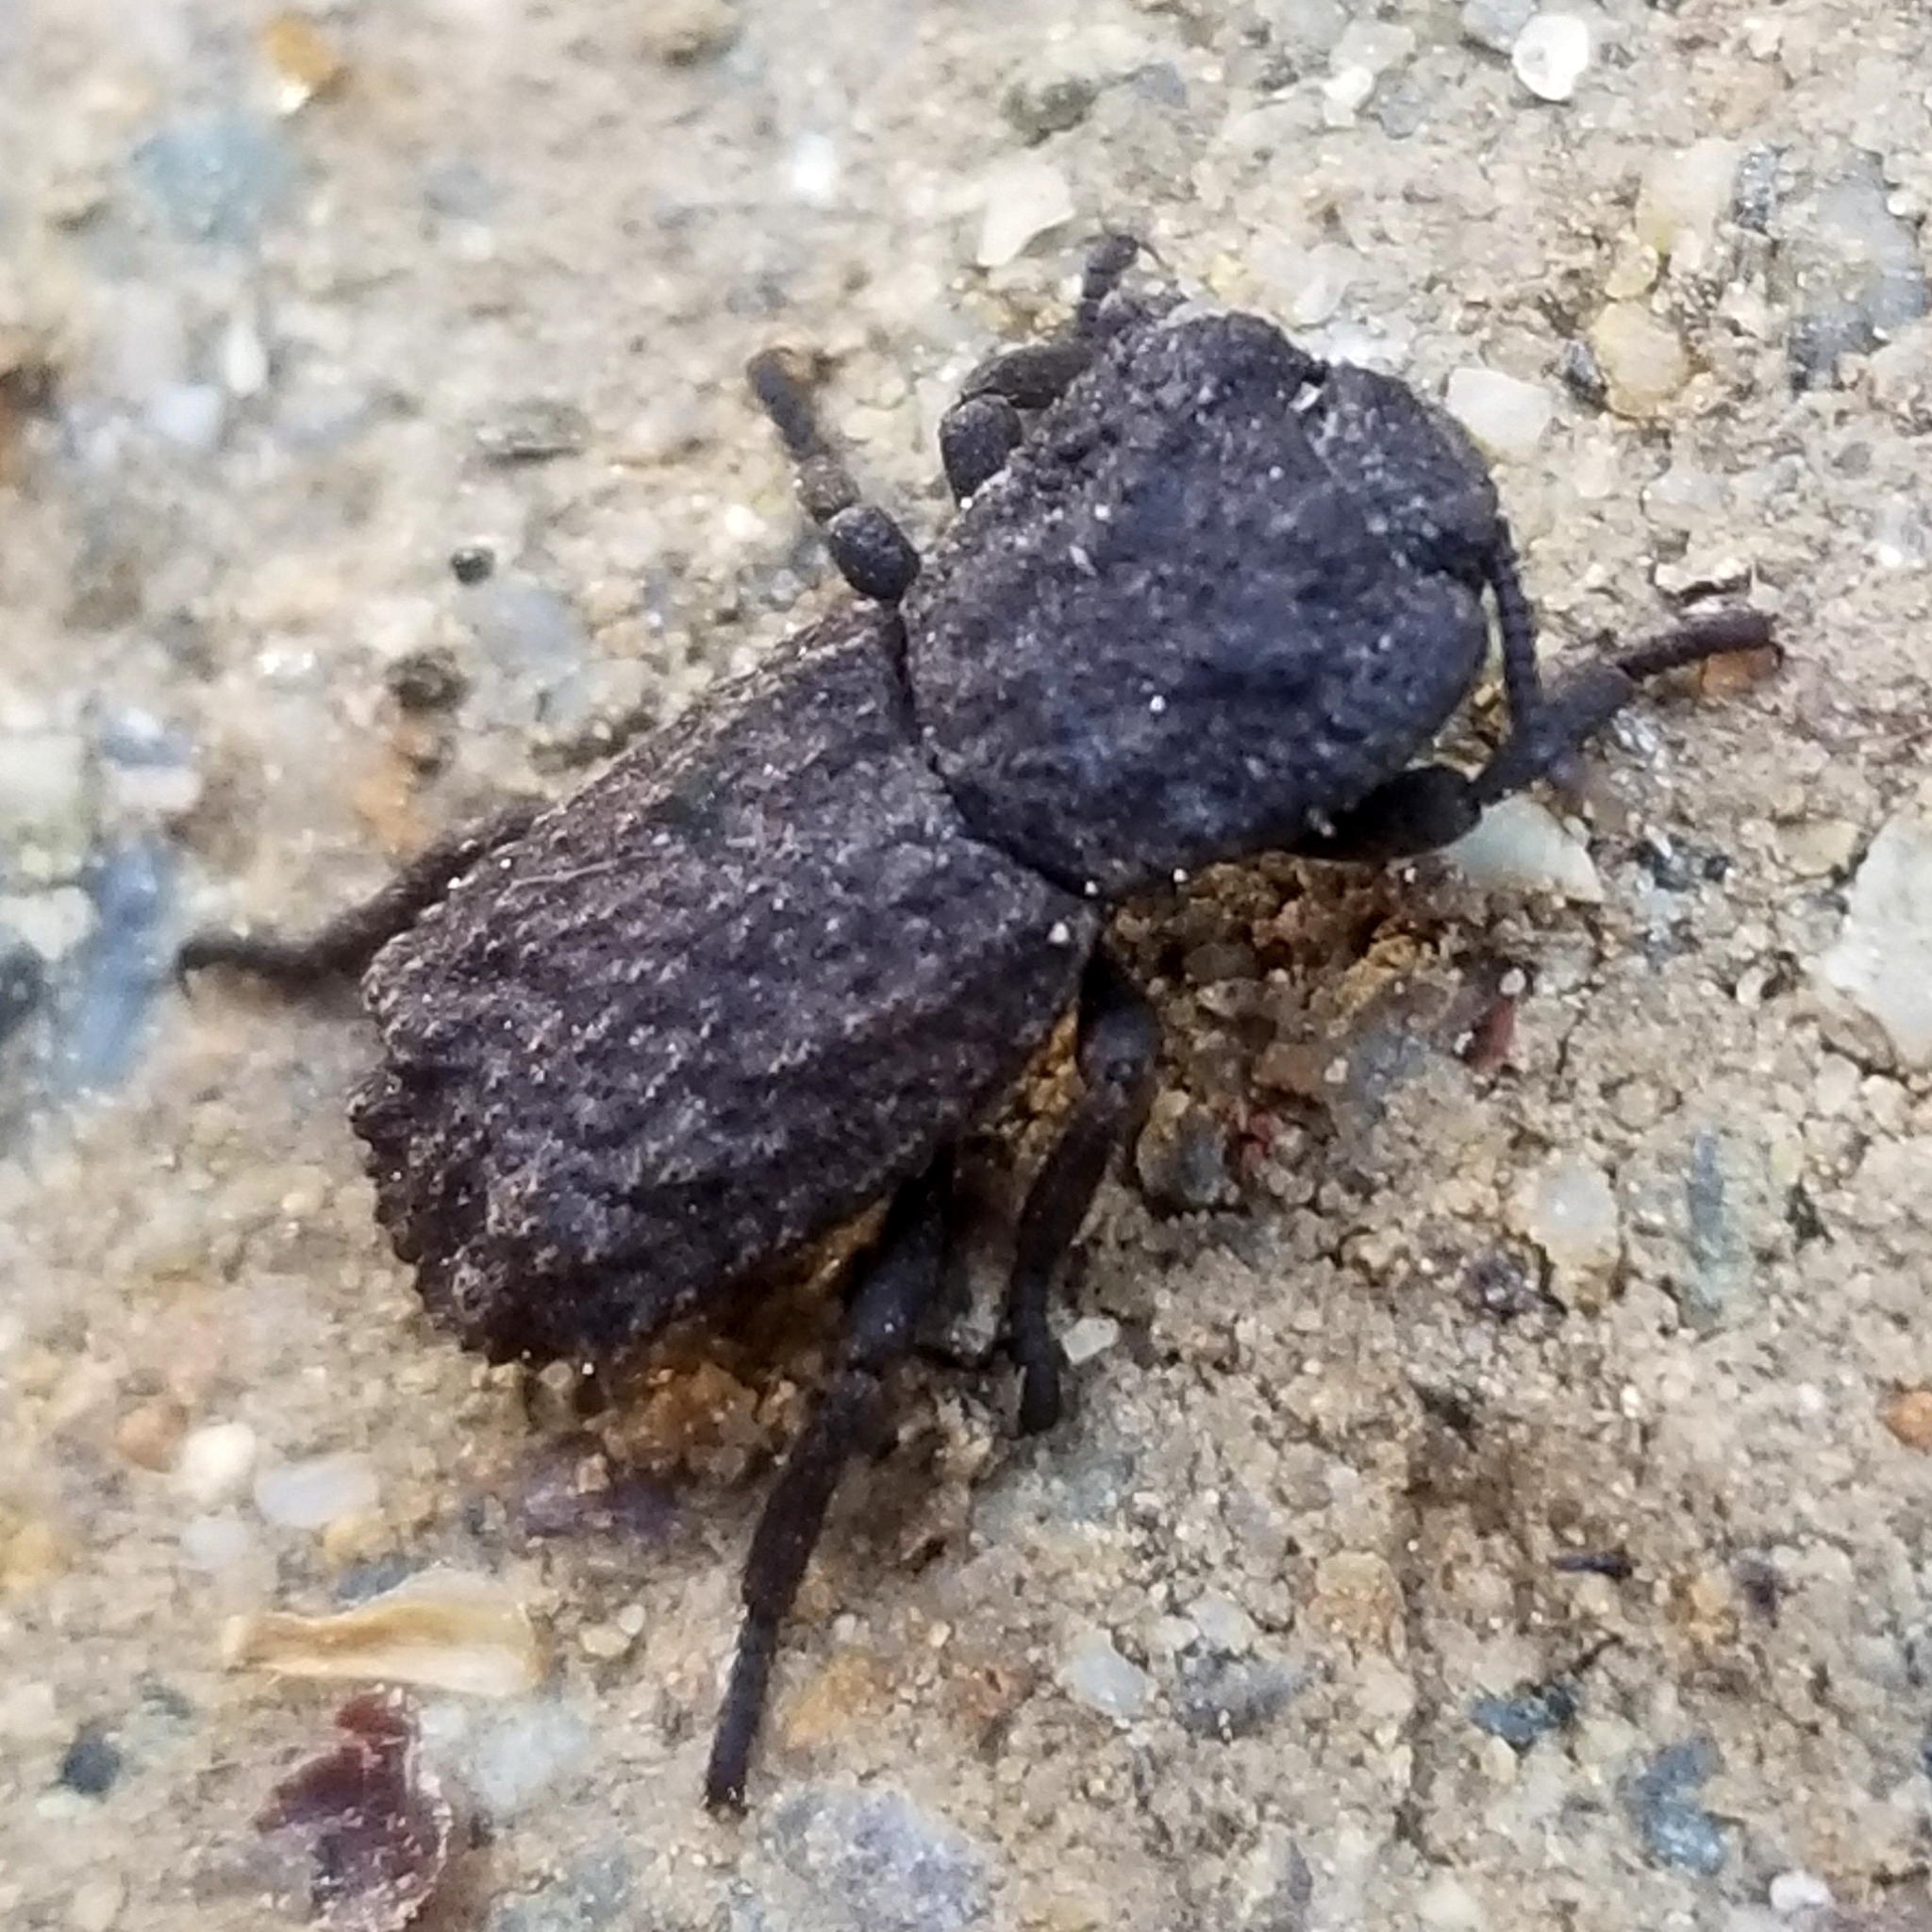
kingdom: Animalia
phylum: Arthropoda
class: Insecta
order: Coleoptera
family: Zopheridae
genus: Phloeodes
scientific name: Phloeodes plicatus
